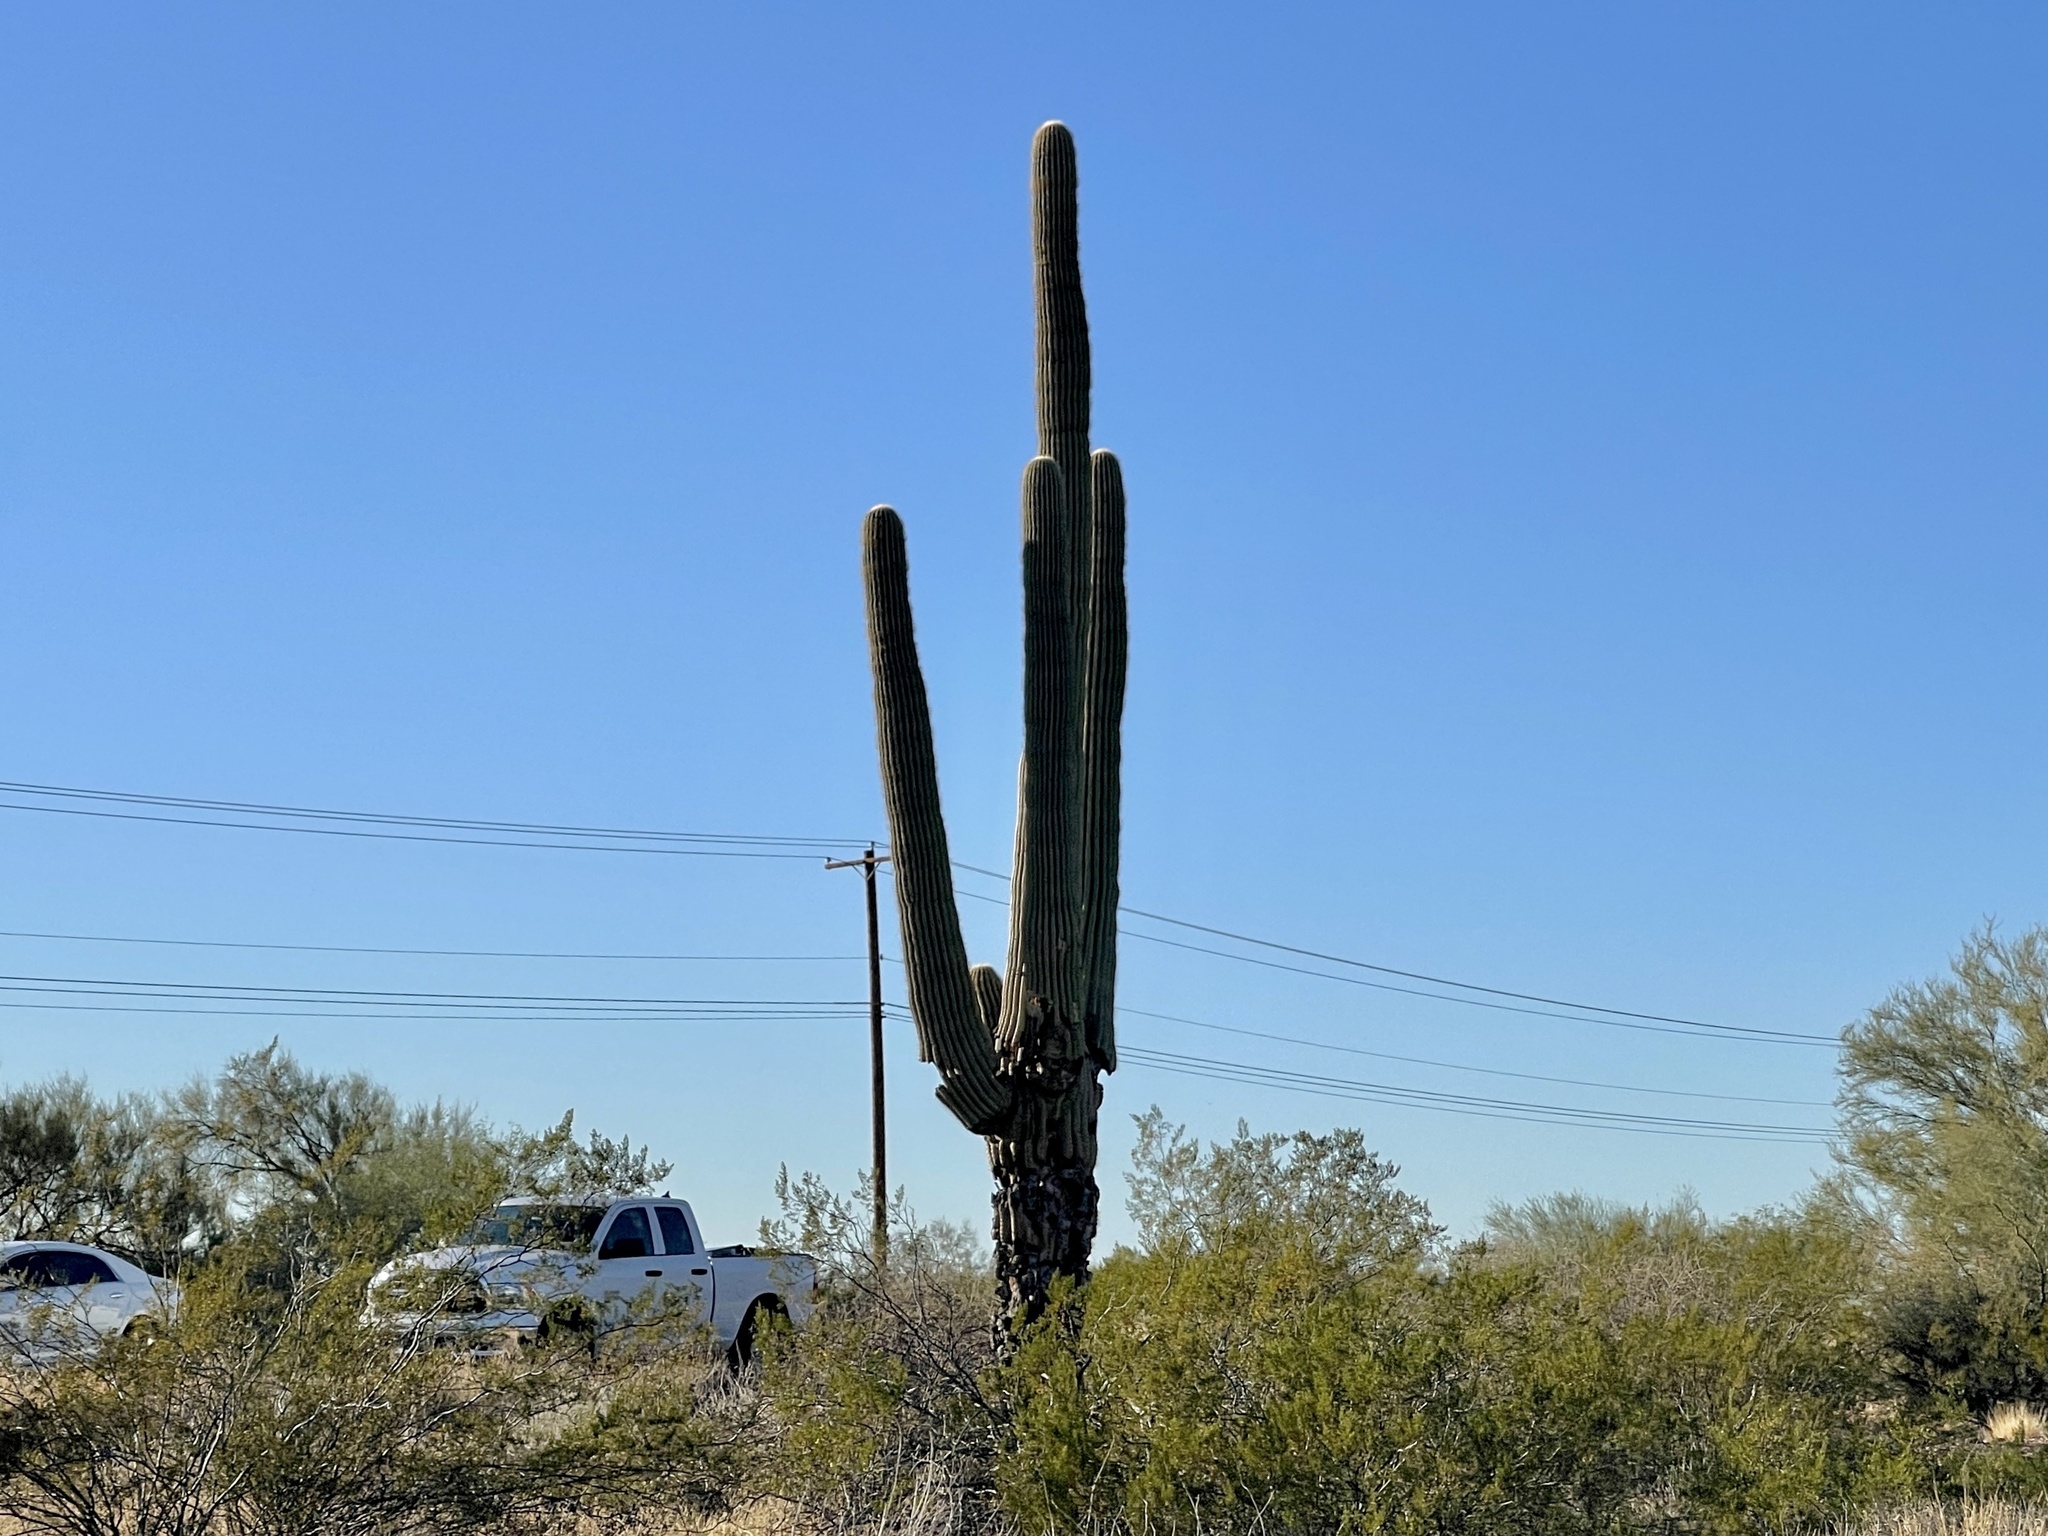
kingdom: Plantae
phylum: Tracheophyta
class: Magnoliopsida
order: Caryophyllales
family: Cactaceae
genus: Carnegiea
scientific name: Carnegiea gigantea
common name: Saguaro
